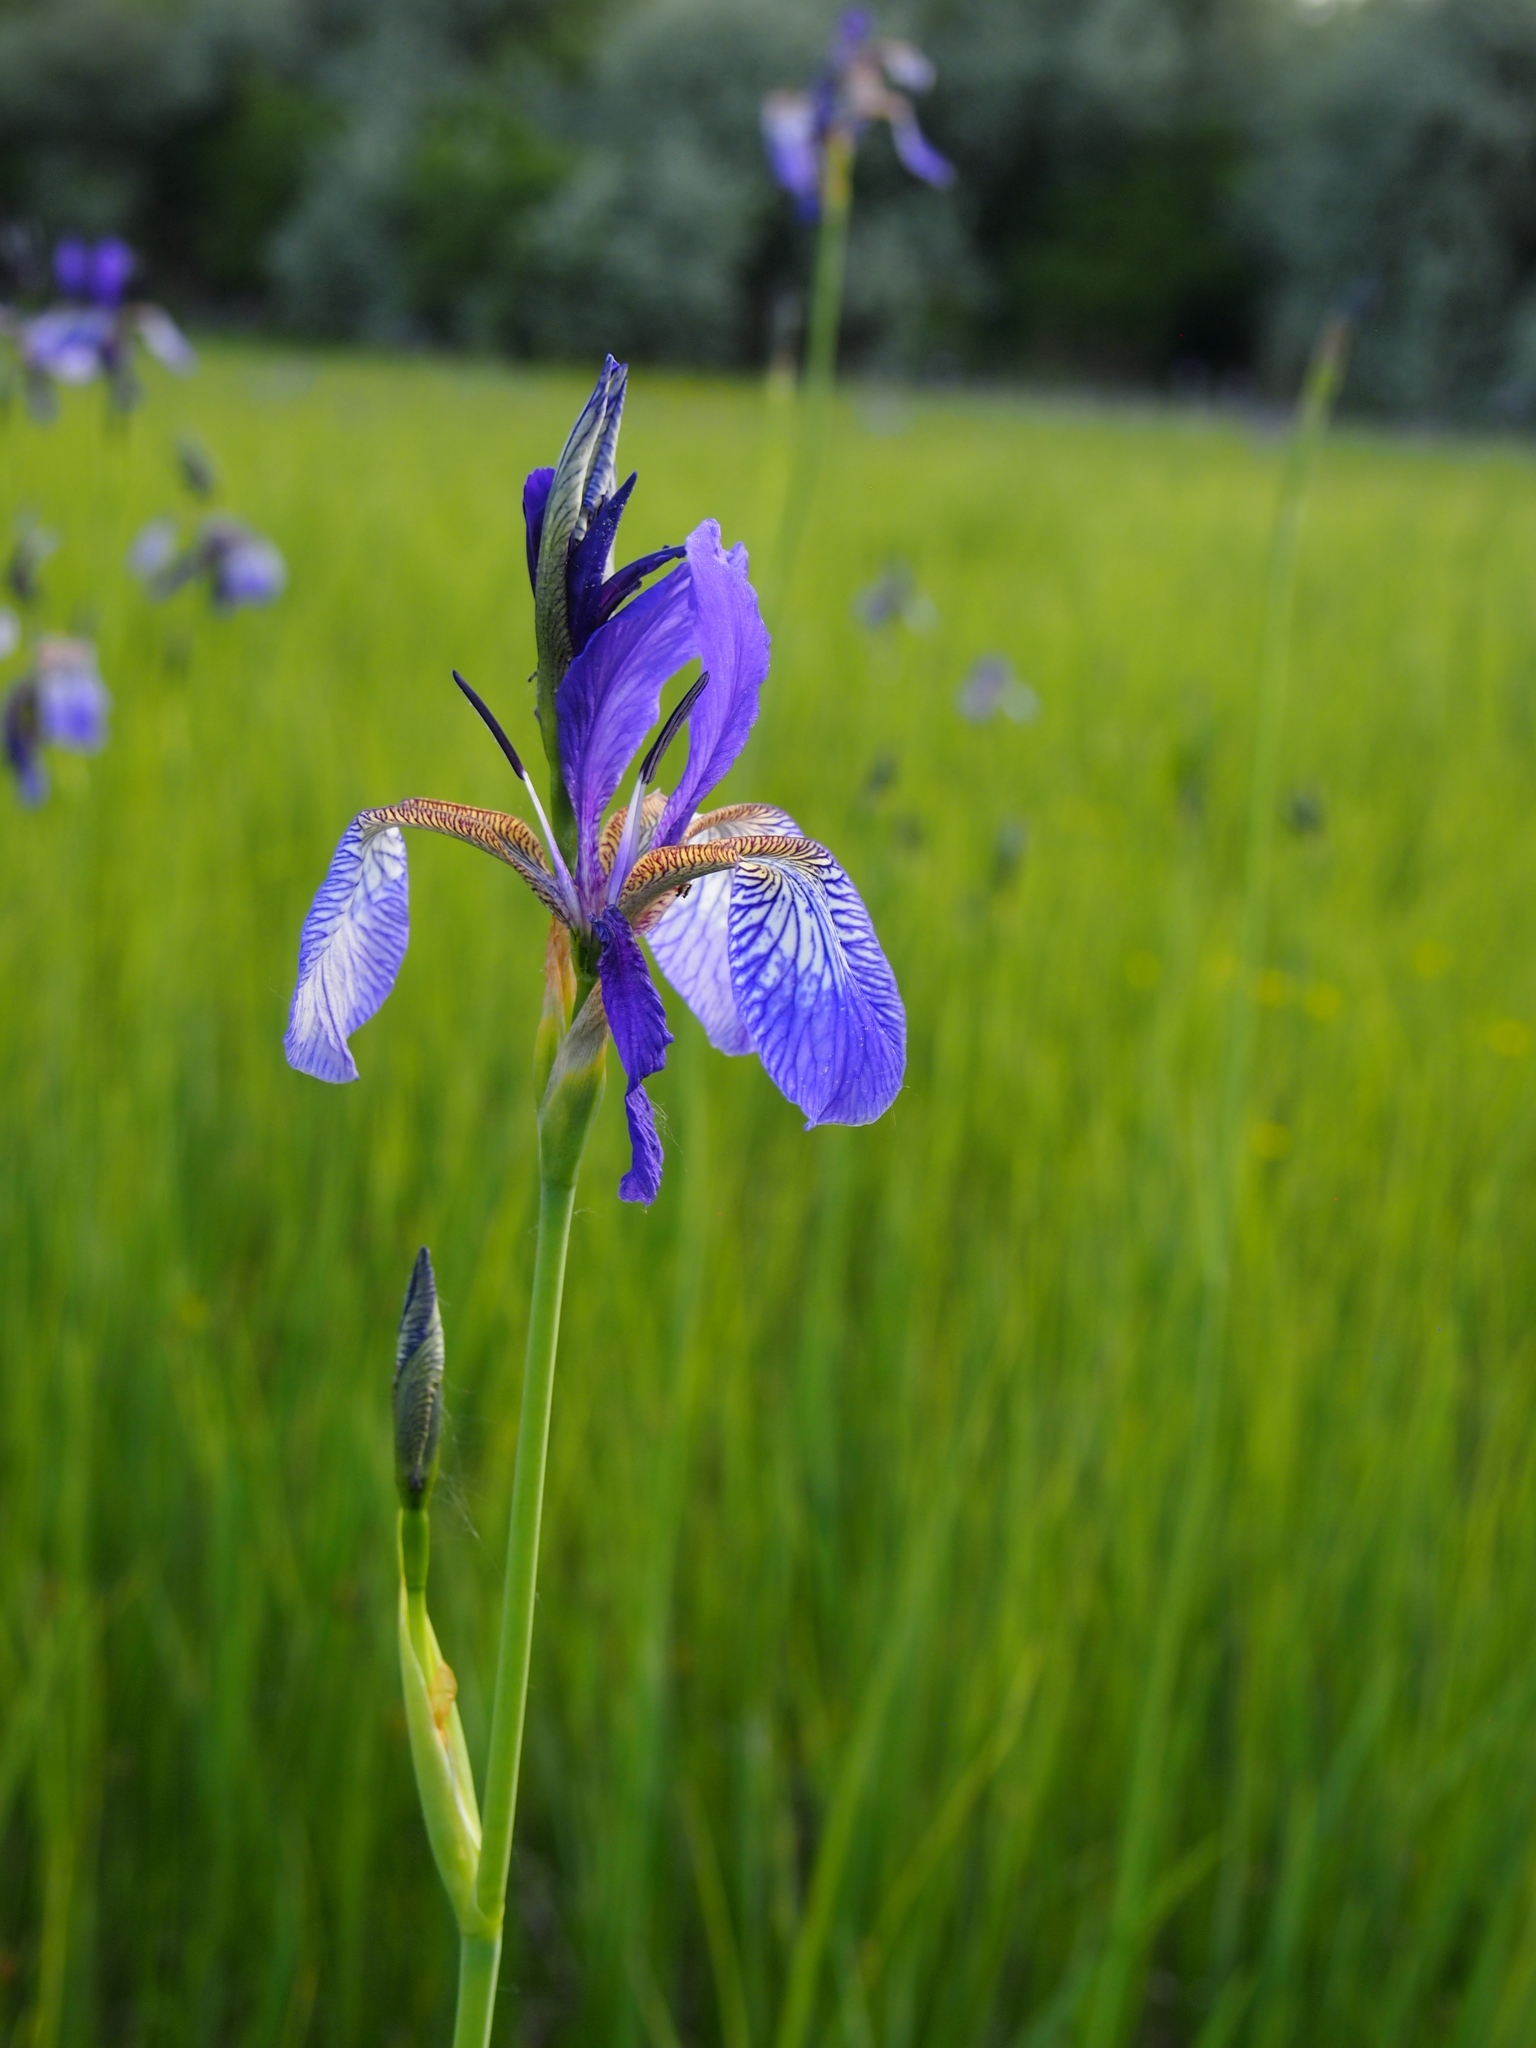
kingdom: Plantae
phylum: Tracheophyta
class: Liliopsida
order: Asparagales
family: Iridaceae
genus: Iris
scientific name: Iris sibirica
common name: Siberian iris
